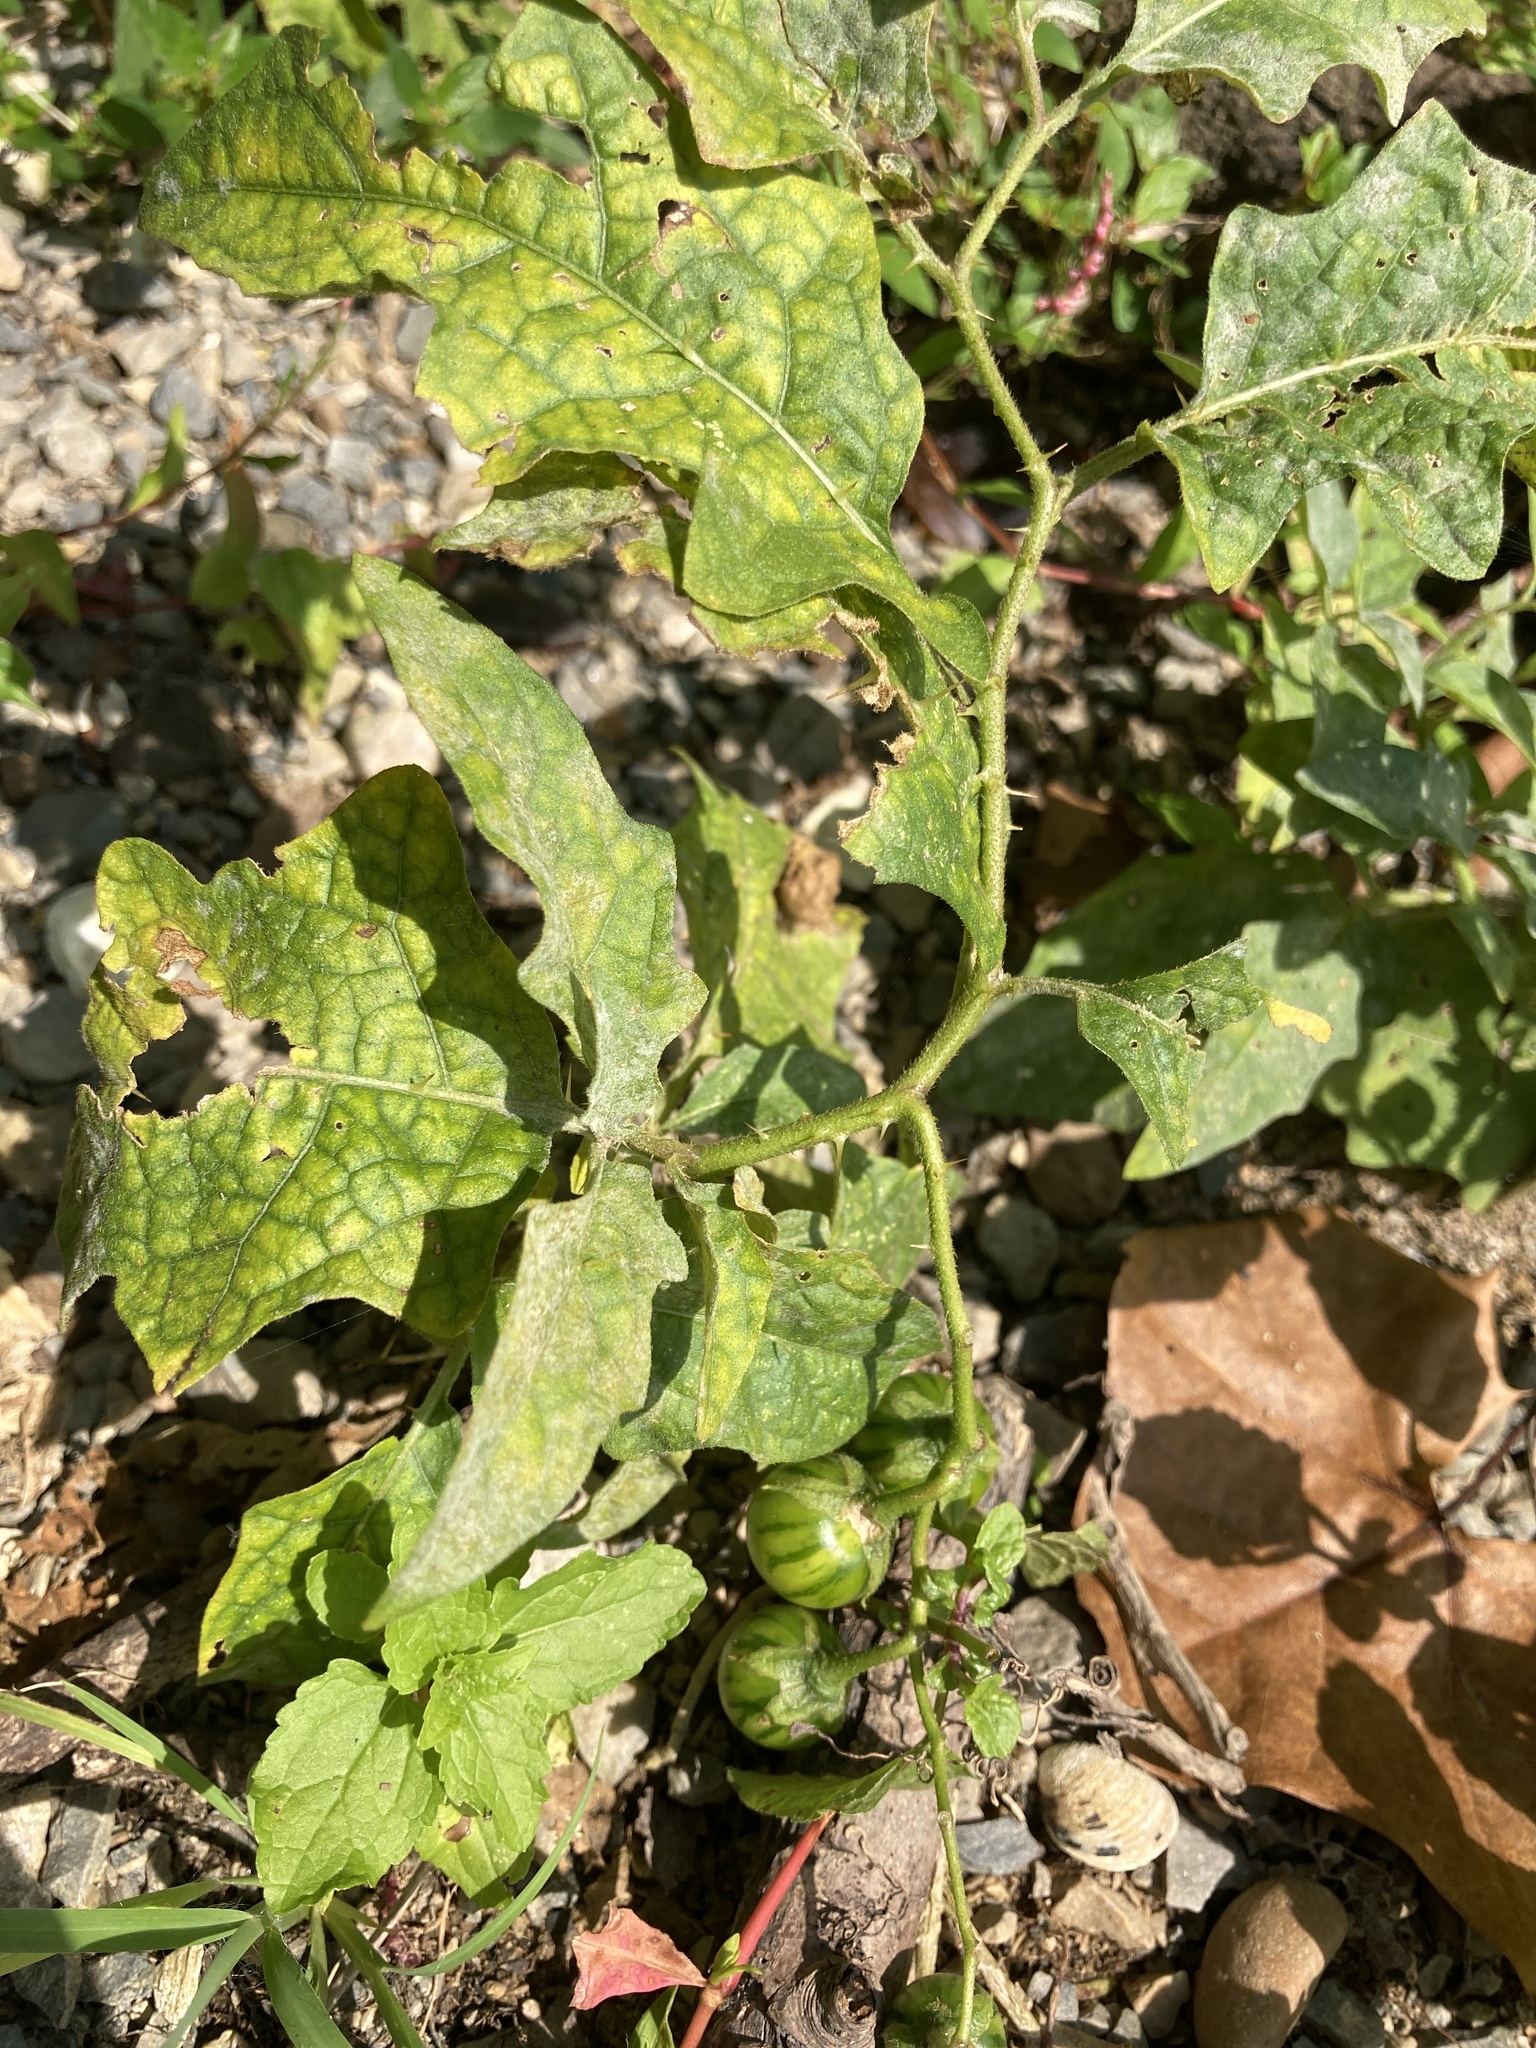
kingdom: Plantae
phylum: Tracheophyta
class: Magnoliopsida
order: Solanales
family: Solanaceae
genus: Solanum
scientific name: Solanum carolinense
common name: Horse-nettle
